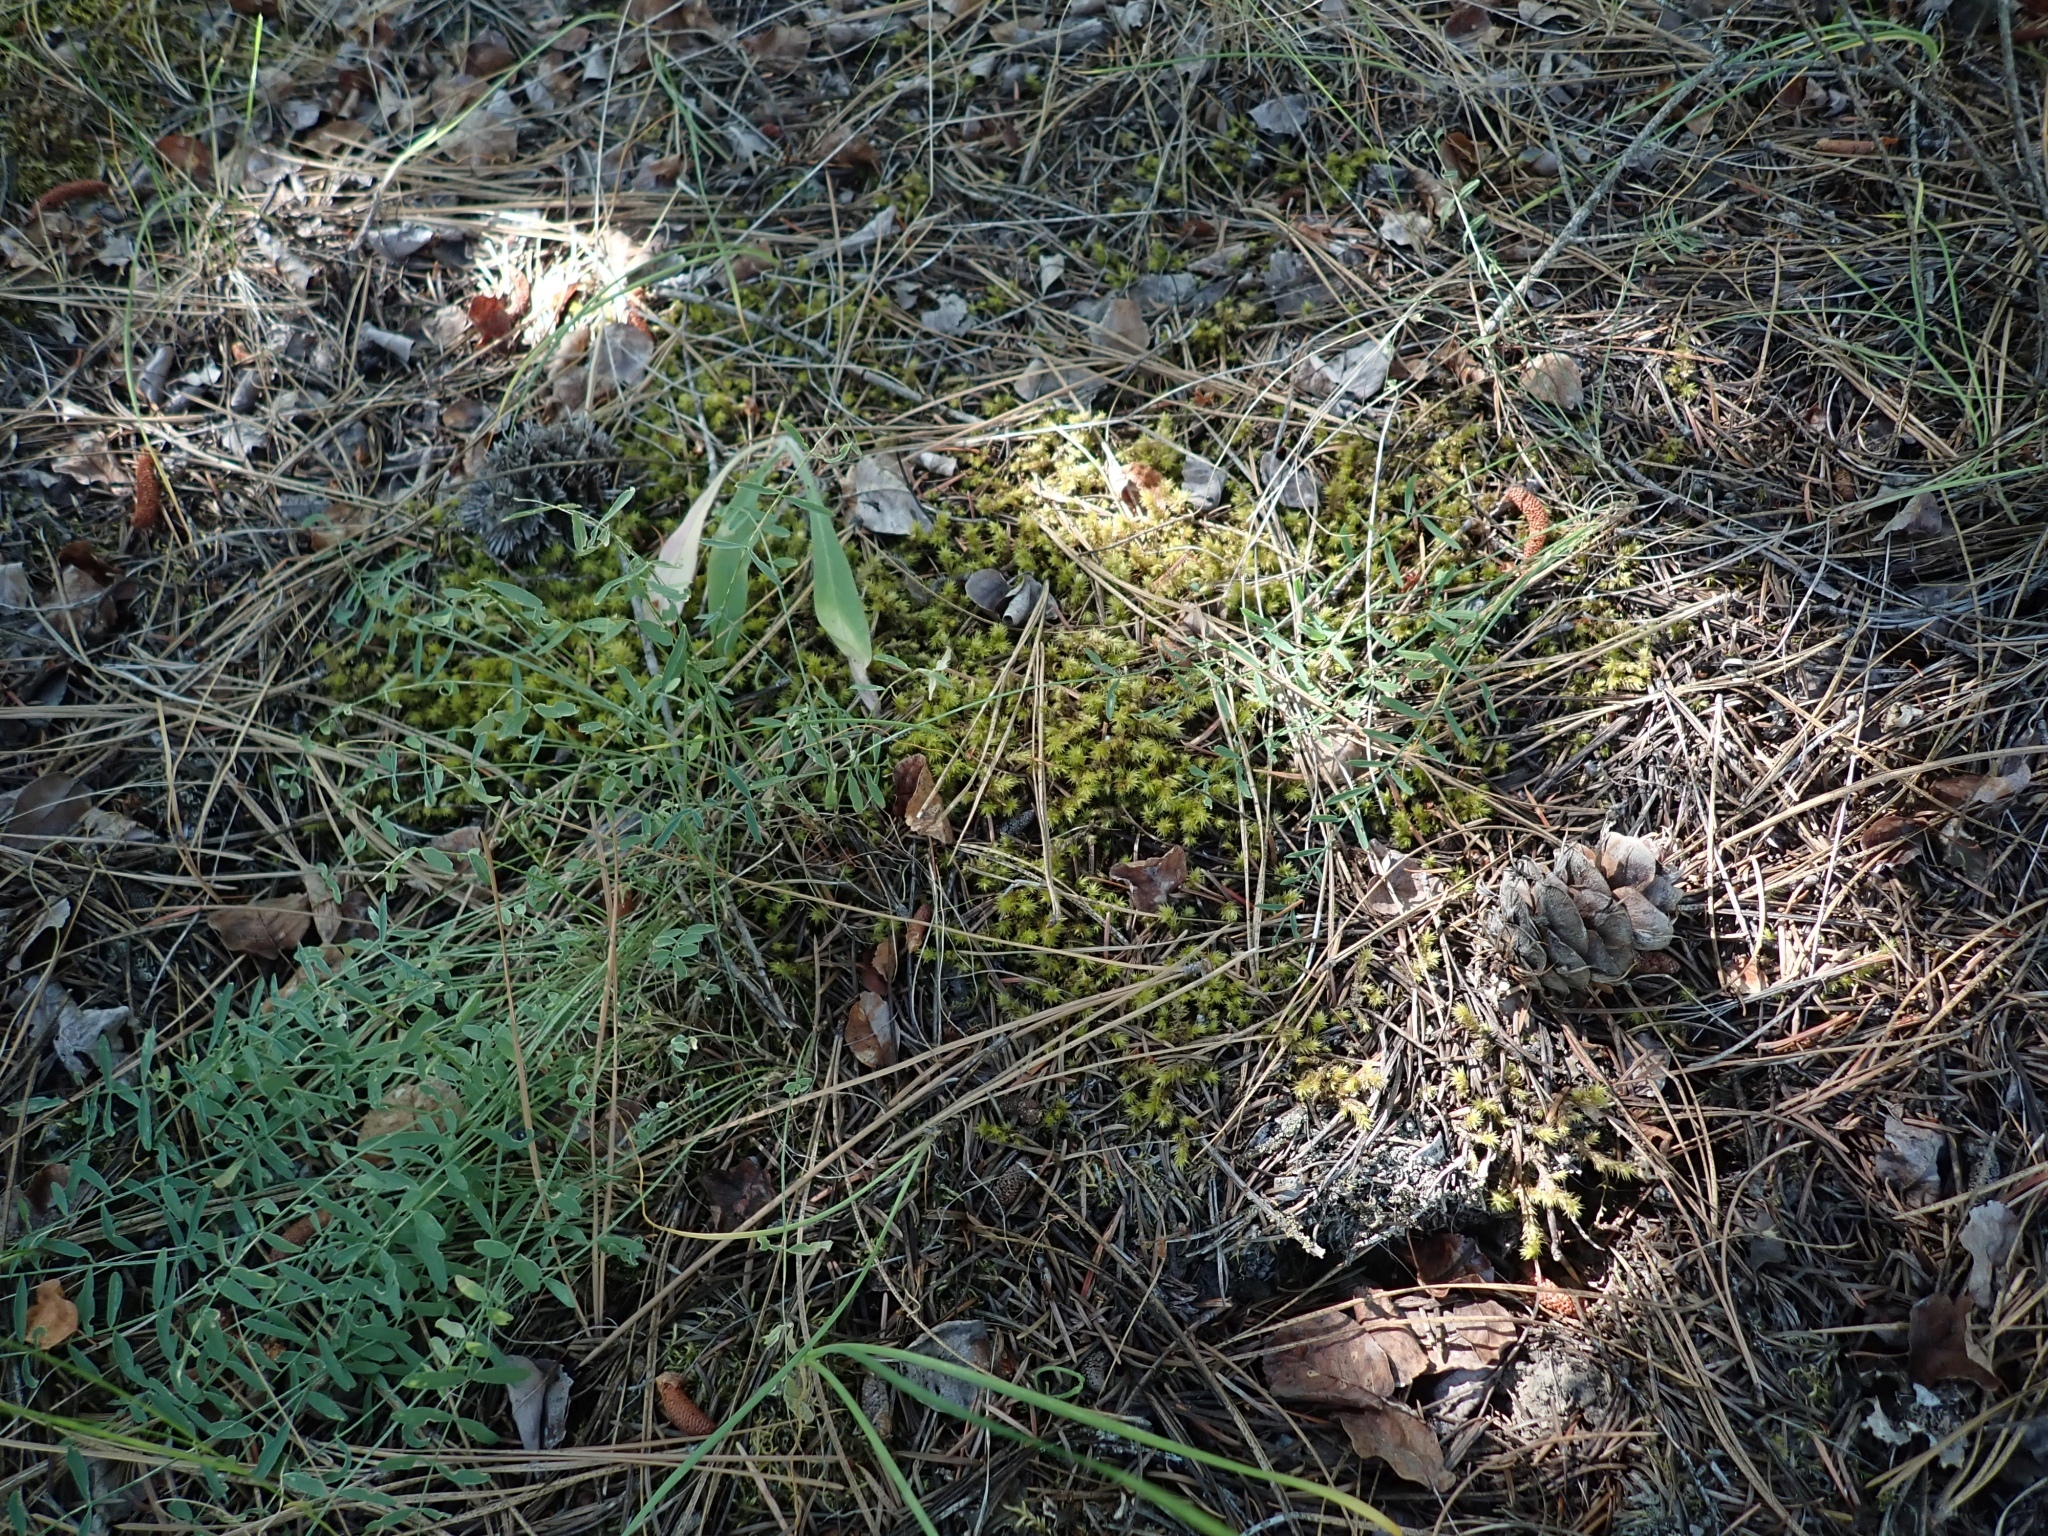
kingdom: Plantae
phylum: Bryophyta
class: Bryopsida
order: Hypnales
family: Hylocomiaceae
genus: Hylocomiadelphus
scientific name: Hylocomiadelphus triquetrus
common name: Rough goose neck moss
